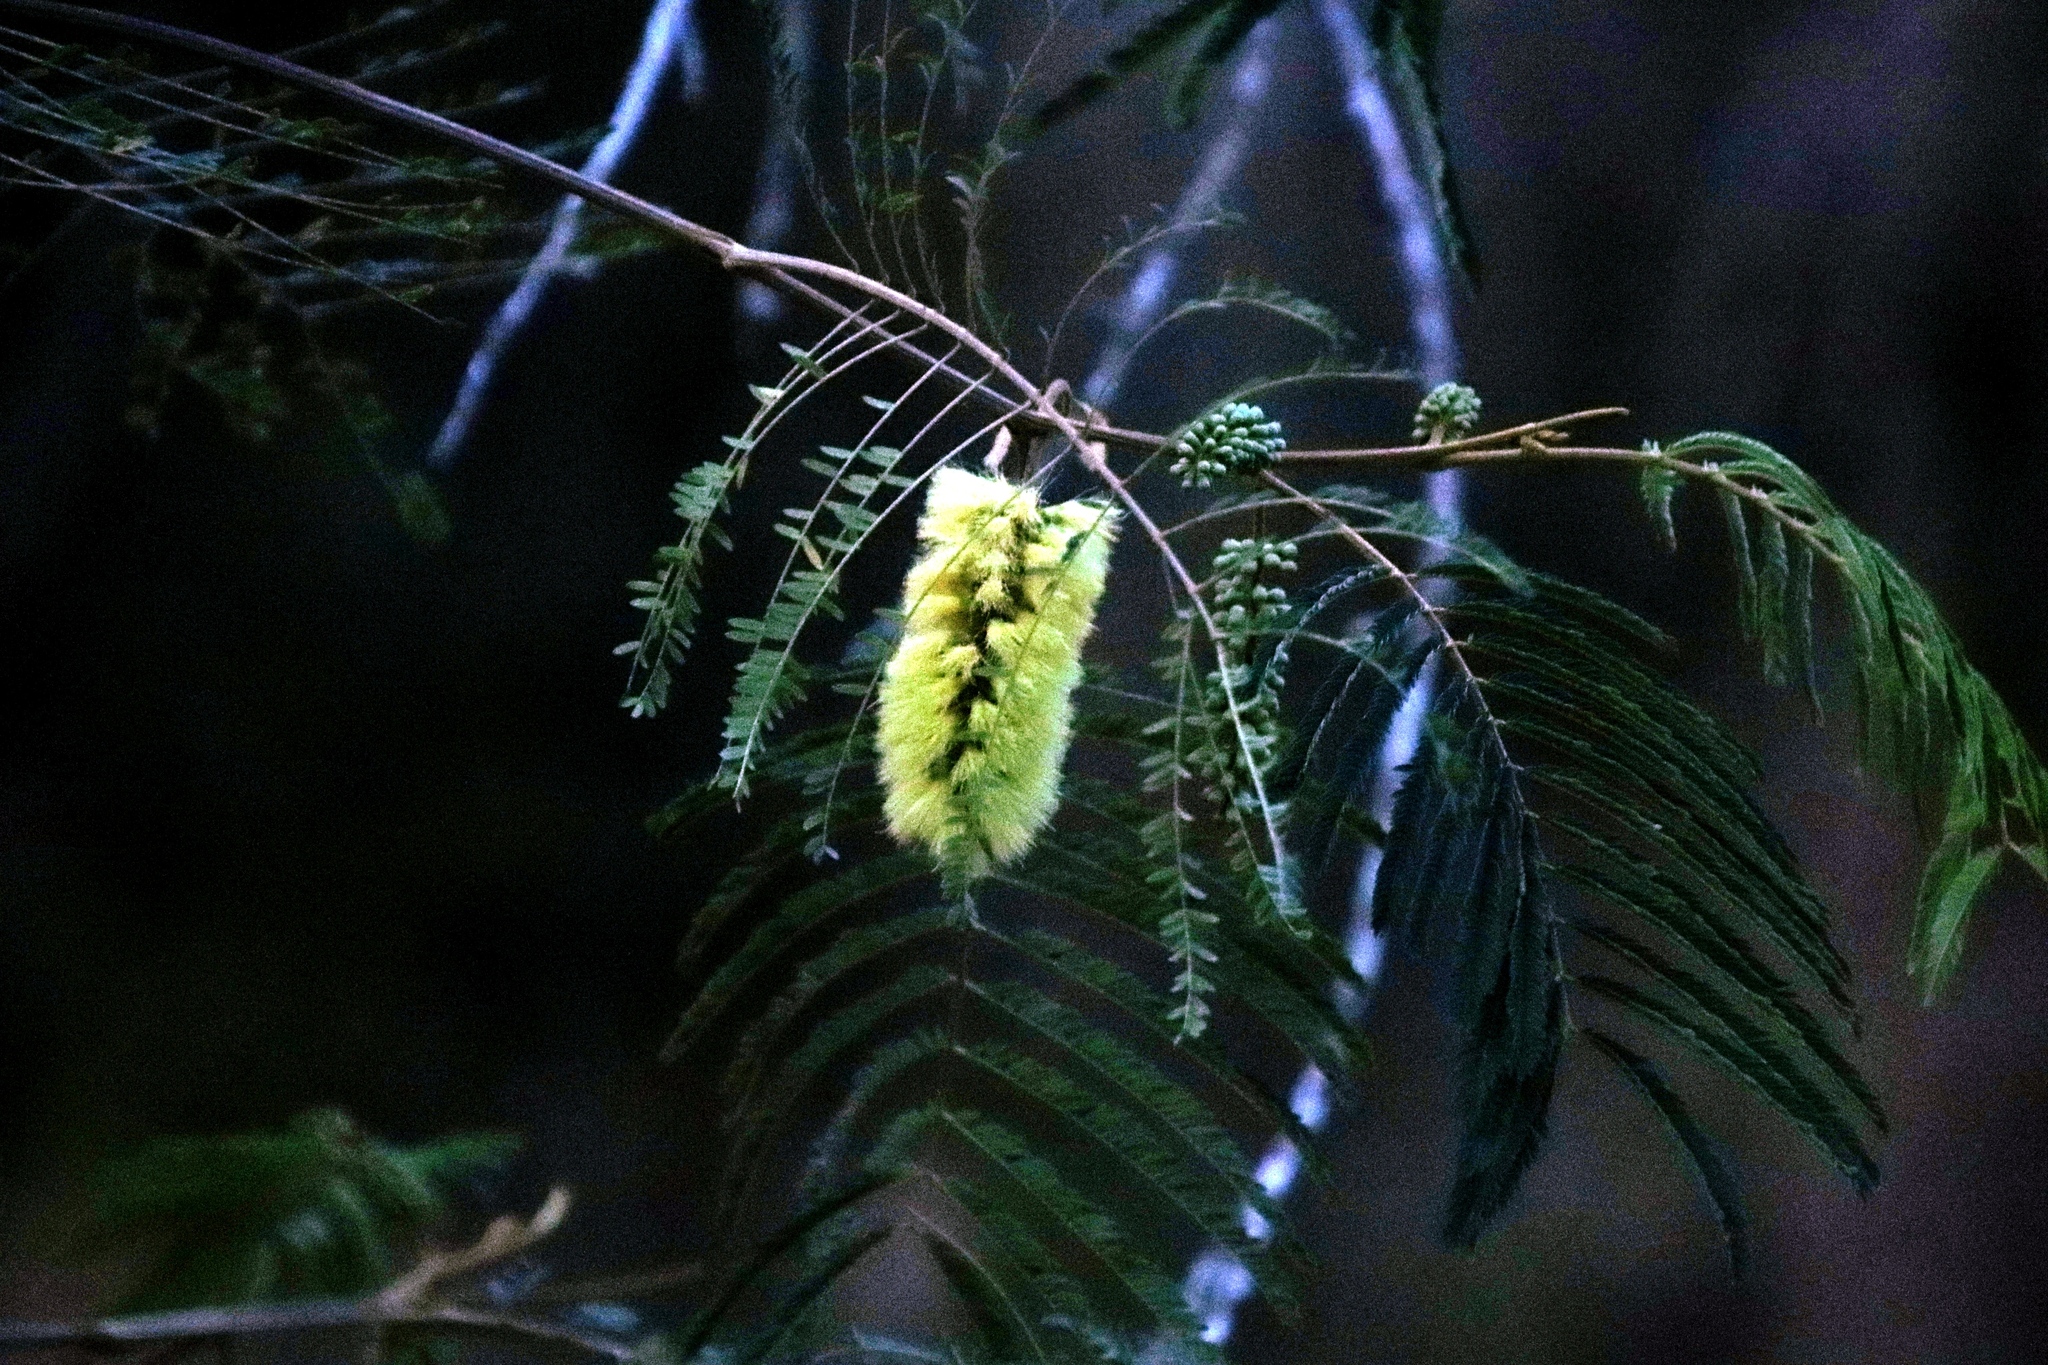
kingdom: Plantae
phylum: Tracheophyta
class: Magnoliopsida
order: Fabales
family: Fabaceae
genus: Paraserianthes
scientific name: Paraserianthes lophantha
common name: Plume albizia
